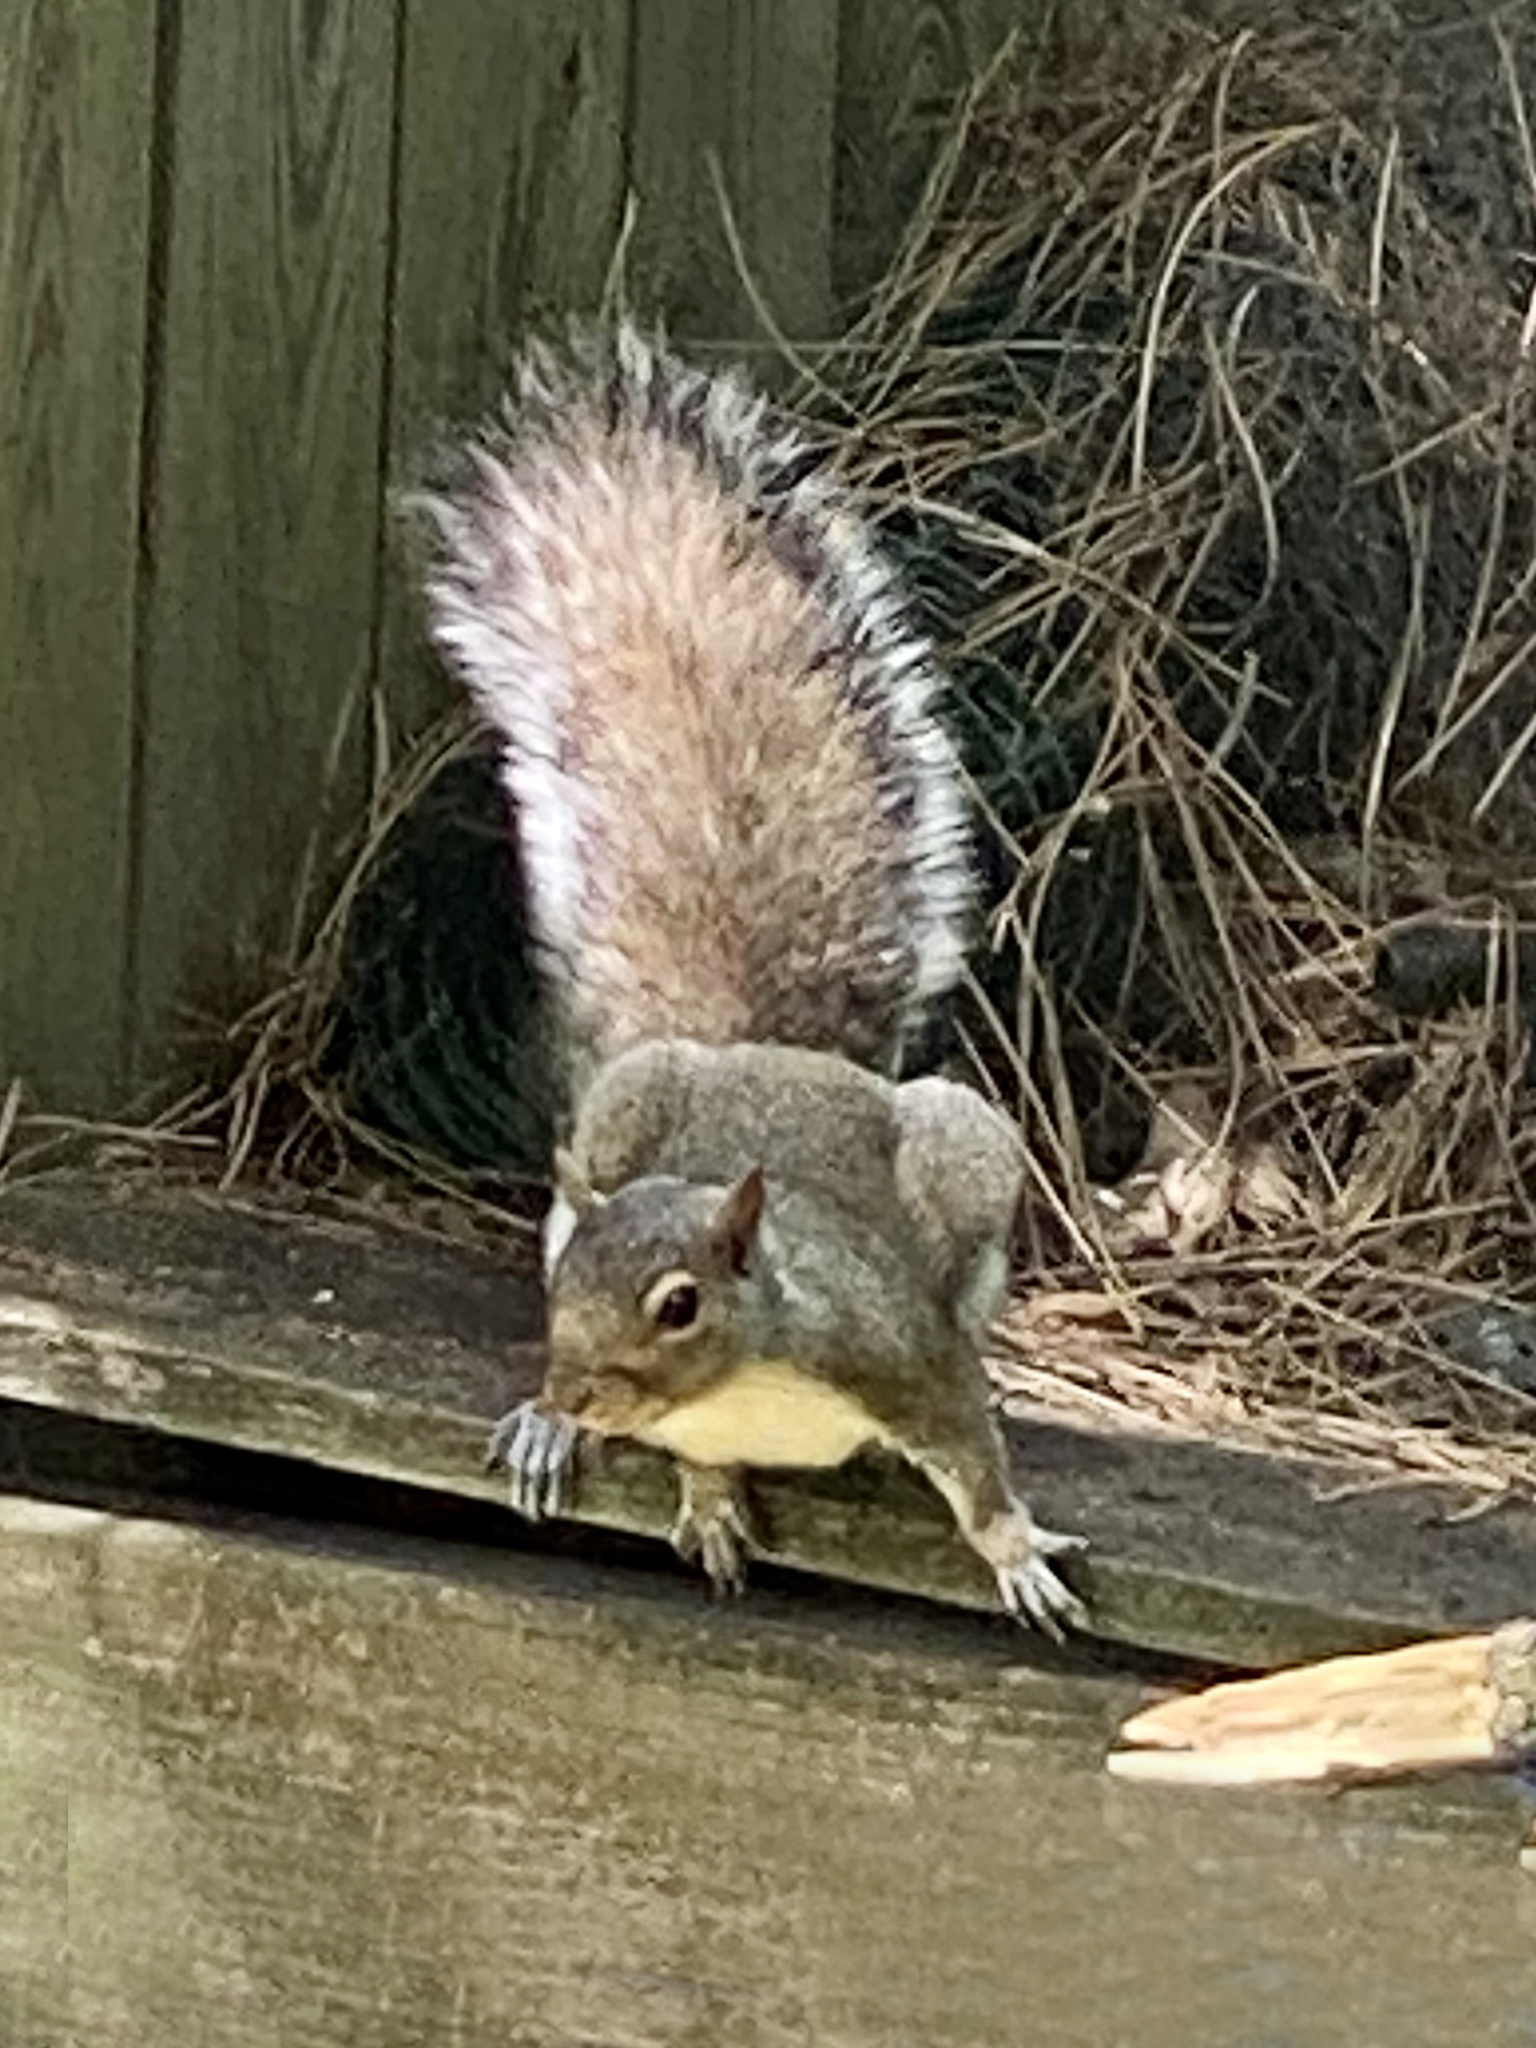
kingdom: Animalia
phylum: Chordata
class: Mammalia
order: Rodentia
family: Sciuridae
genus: Sciurus
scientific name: Sciurus carolinensis
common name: Eastern gray squirrel
